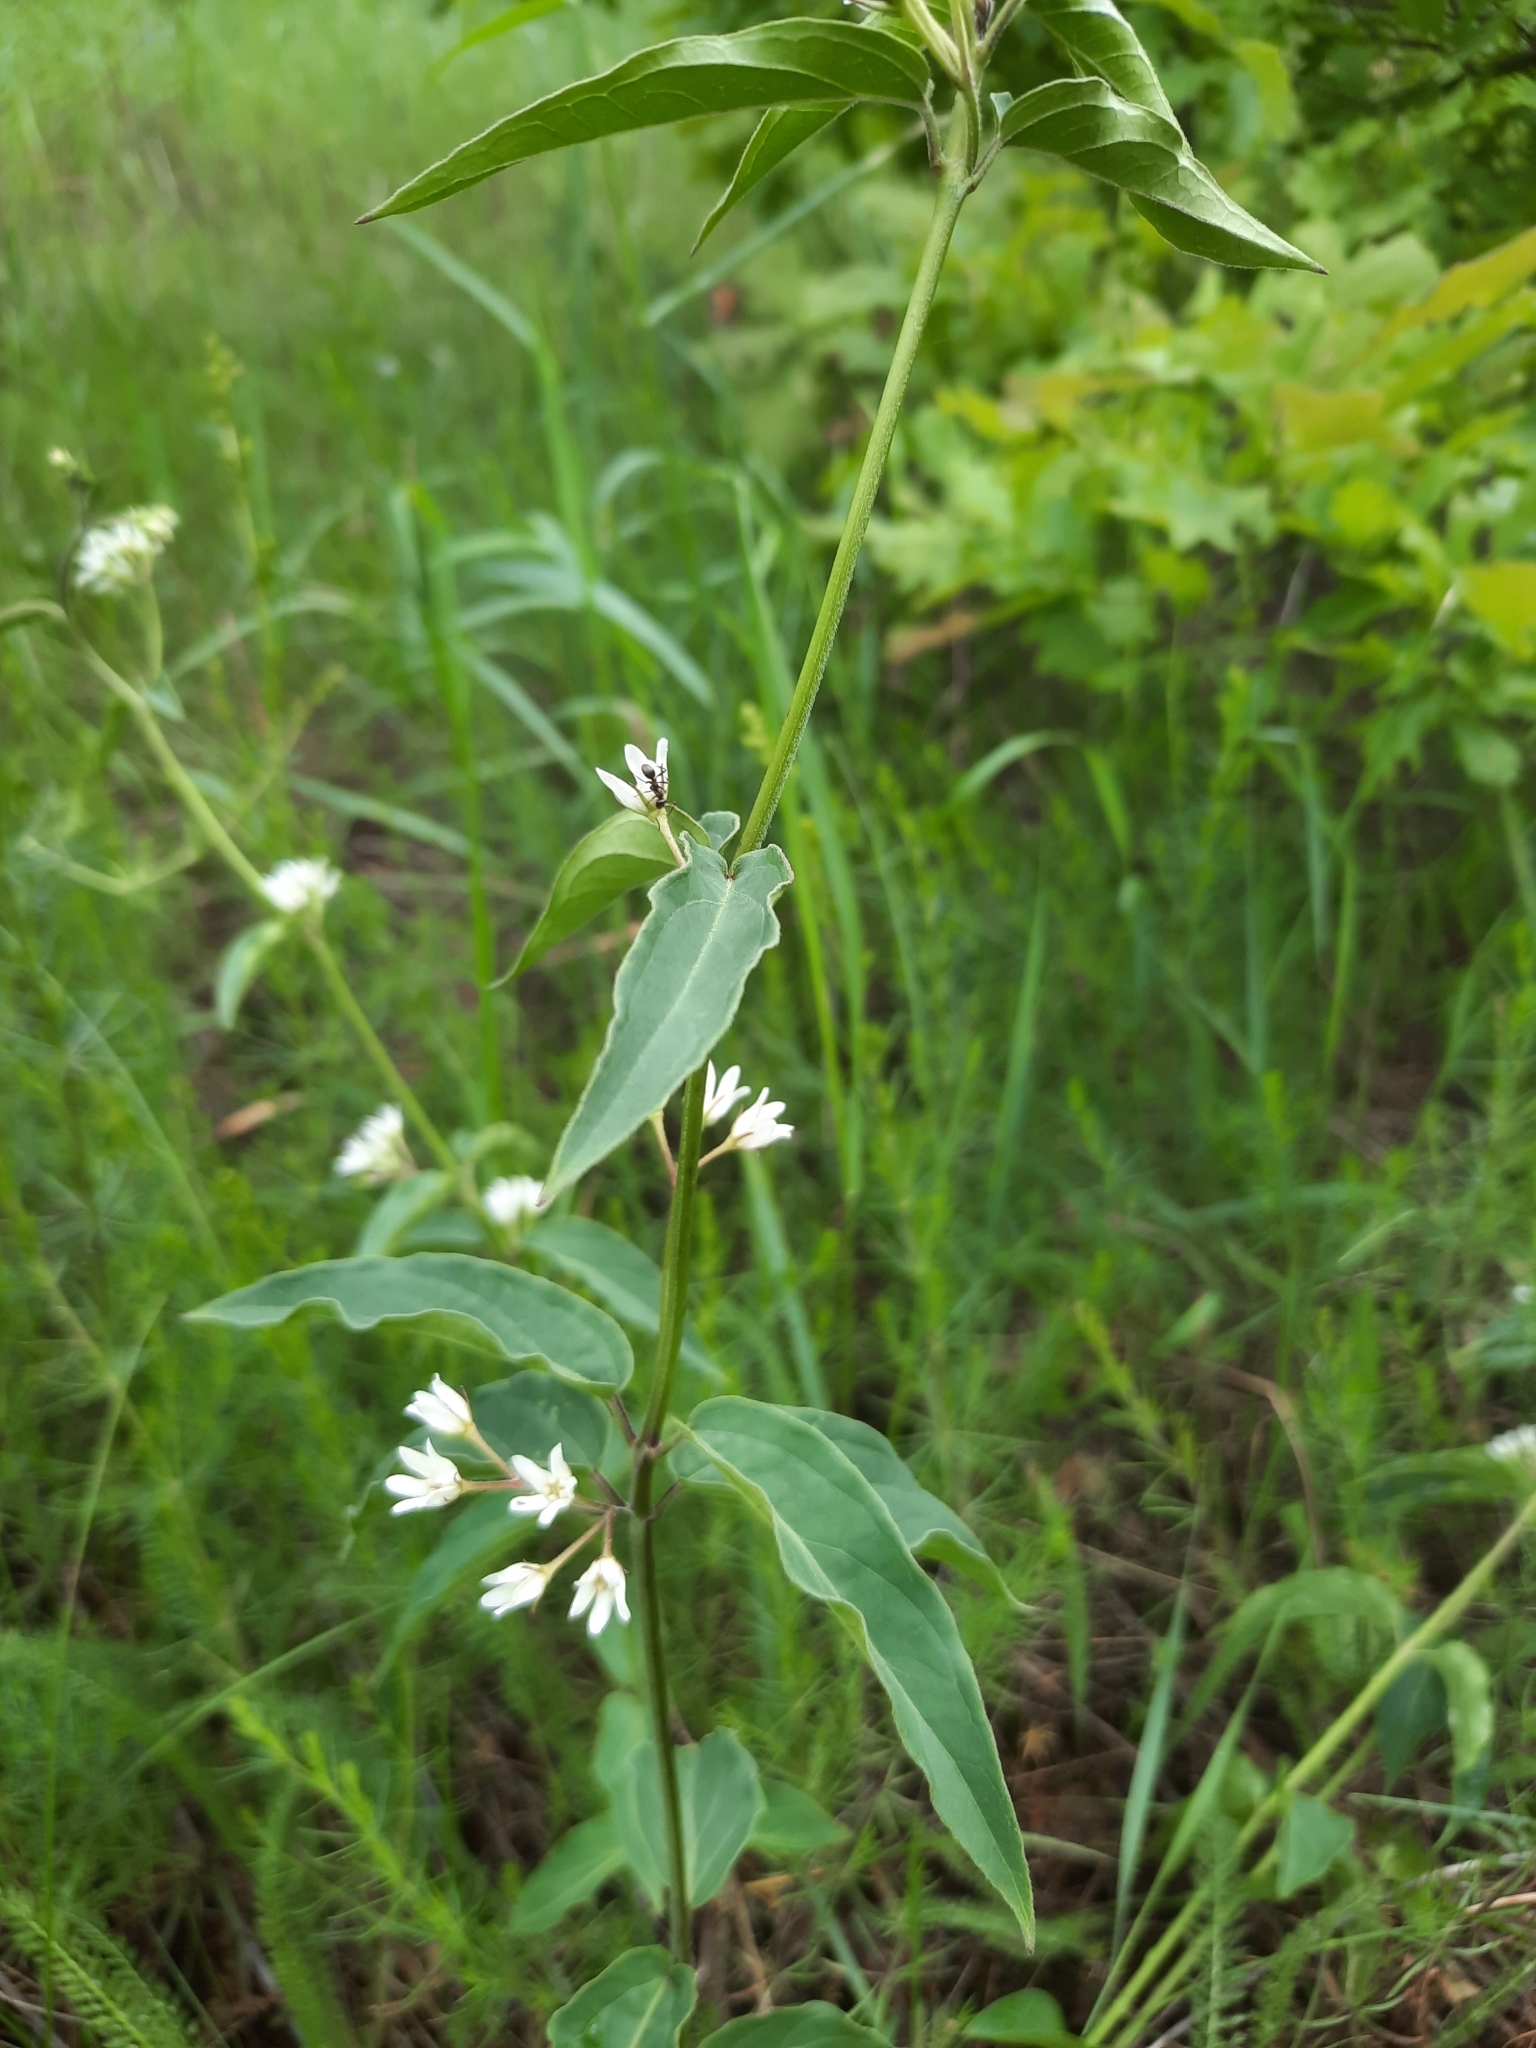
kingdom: Plantae
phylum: Tracheophyta
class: Magnoliopsida
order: Gentianales
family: Apocynaceae
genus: Vincetoxicum
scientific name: Vincetoxicum hirundinaria
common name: White swallowwort
